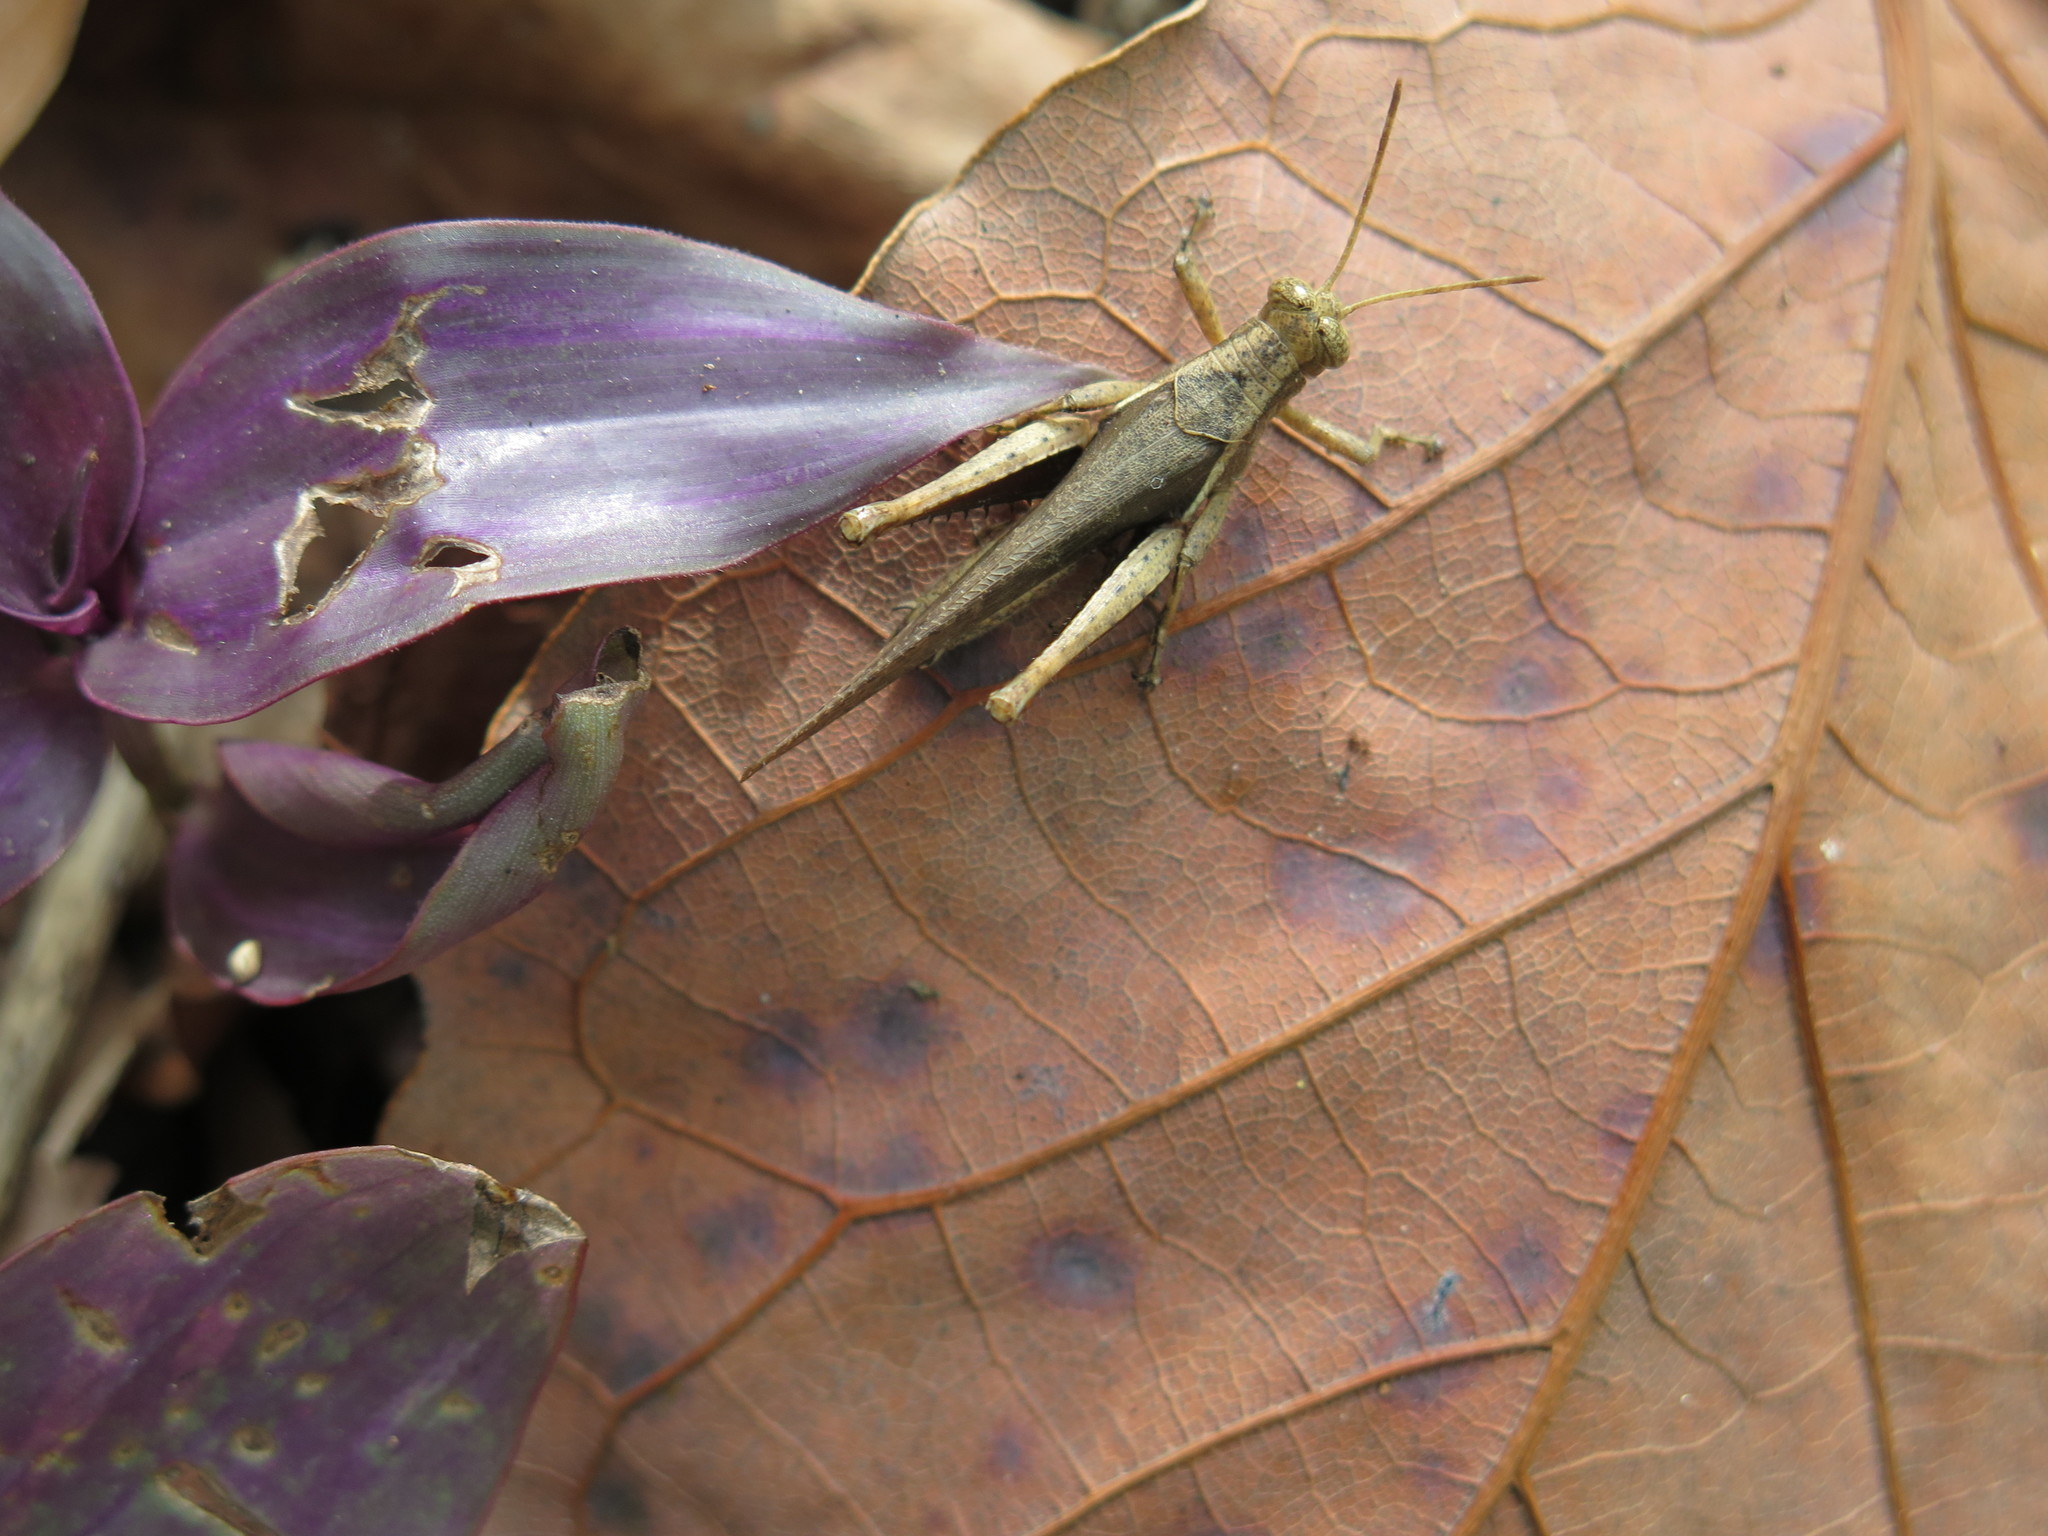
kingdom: Animalia
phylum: Arthropoda
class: Insecta
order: Orthoptera
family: Acrididae
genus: Abracris
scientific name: Abracris flavolineata
